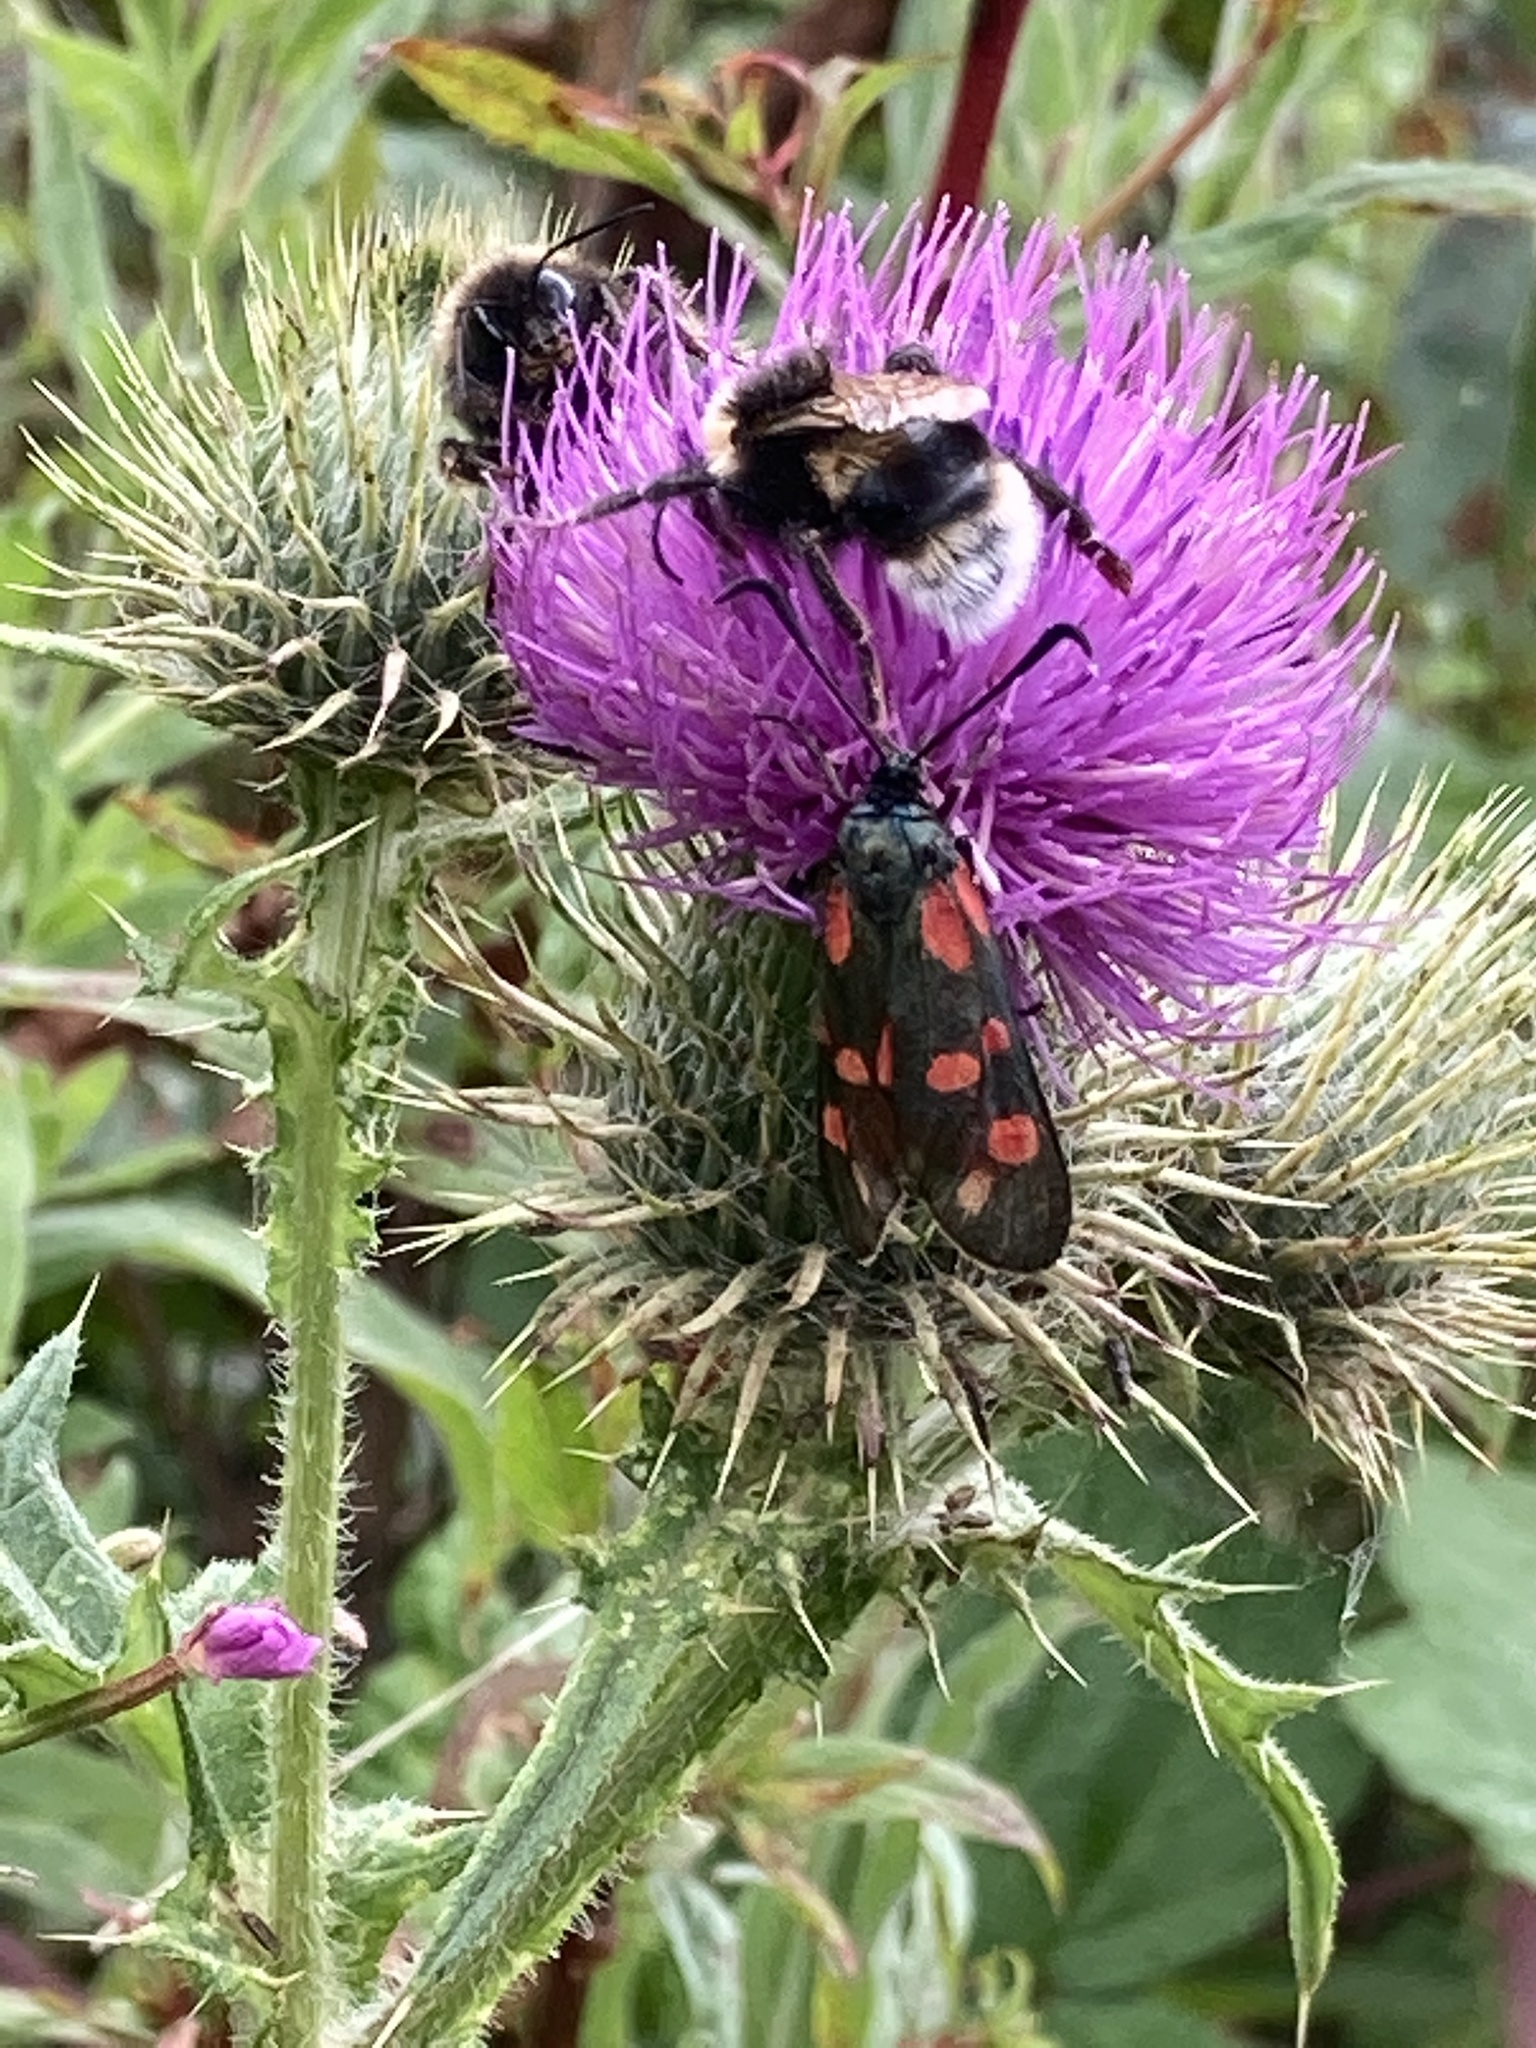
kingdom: Animalia
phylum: Arthropoda
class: Insecta
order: Lepidoptera
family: Zygaenidae
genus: Zygaena
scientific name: Zygaena filipendulae
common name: Six-spot burnet
